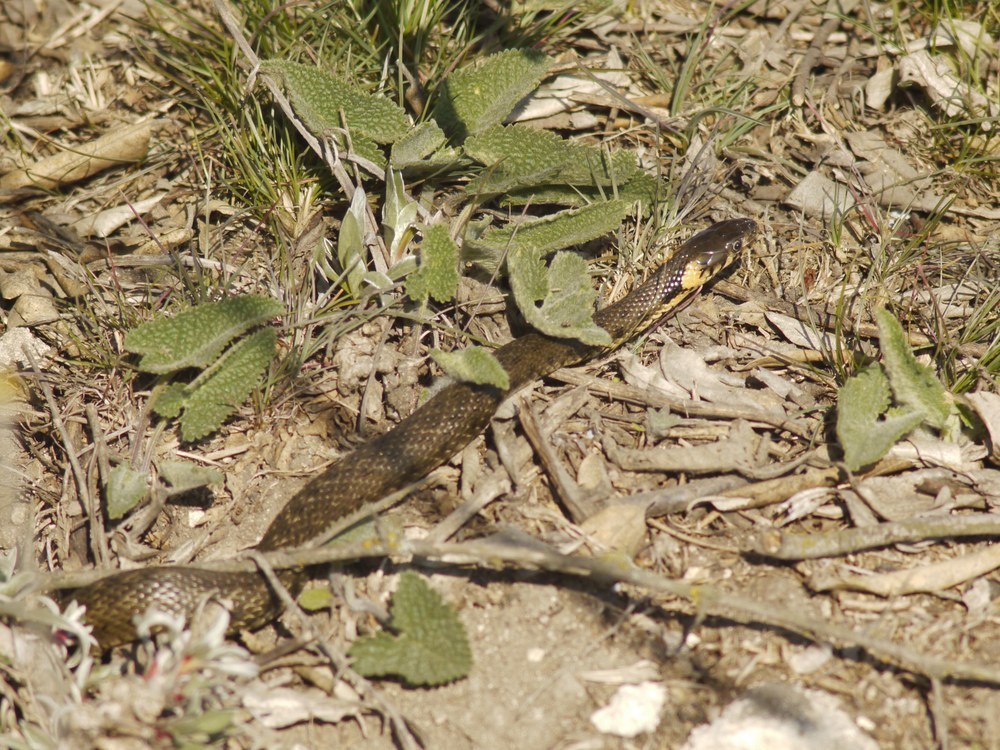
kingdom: Animalia
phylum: Chordata
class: Squamata
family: Colubridae
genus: Natrix
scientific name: Natrix natrix
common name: Grass snake
